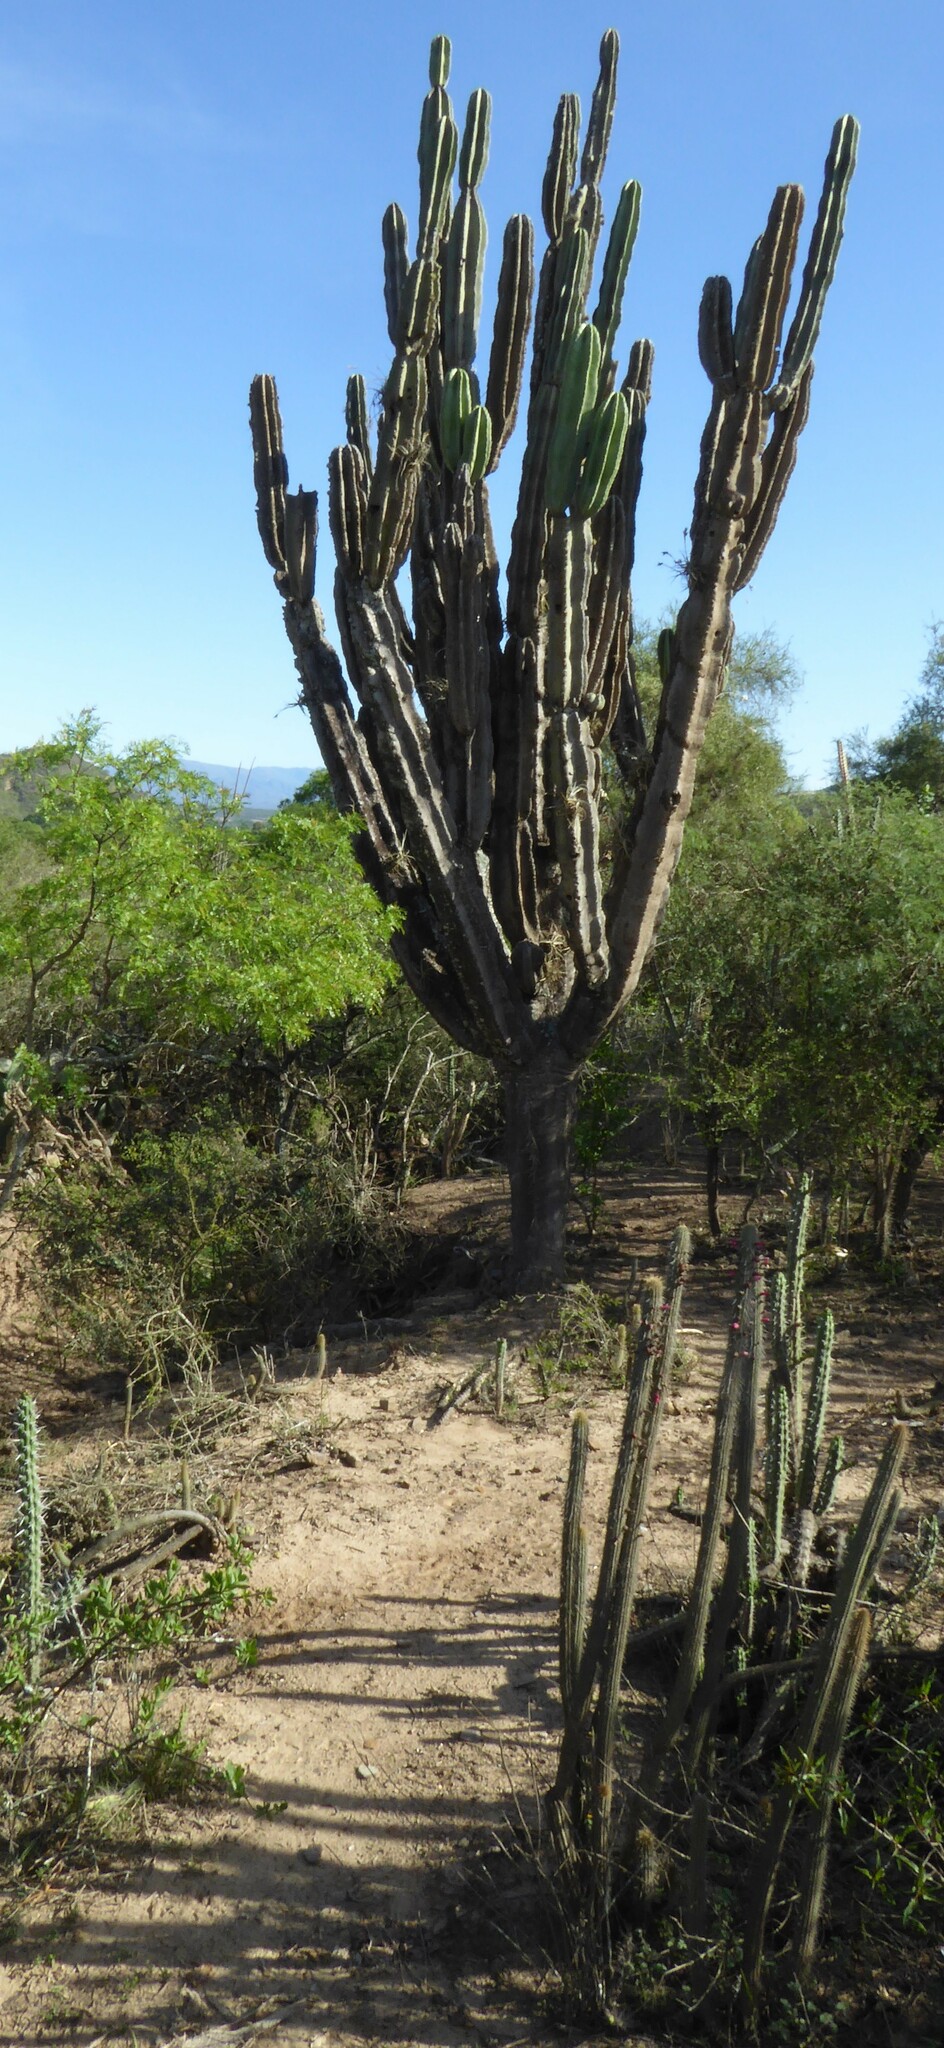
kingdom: Plantae
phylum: Tracheophyta
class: Magnoliopsida
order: Caryophyllales
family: Cactaceae
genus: Neoraimondia
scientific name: Neoraimondia herzogiana
